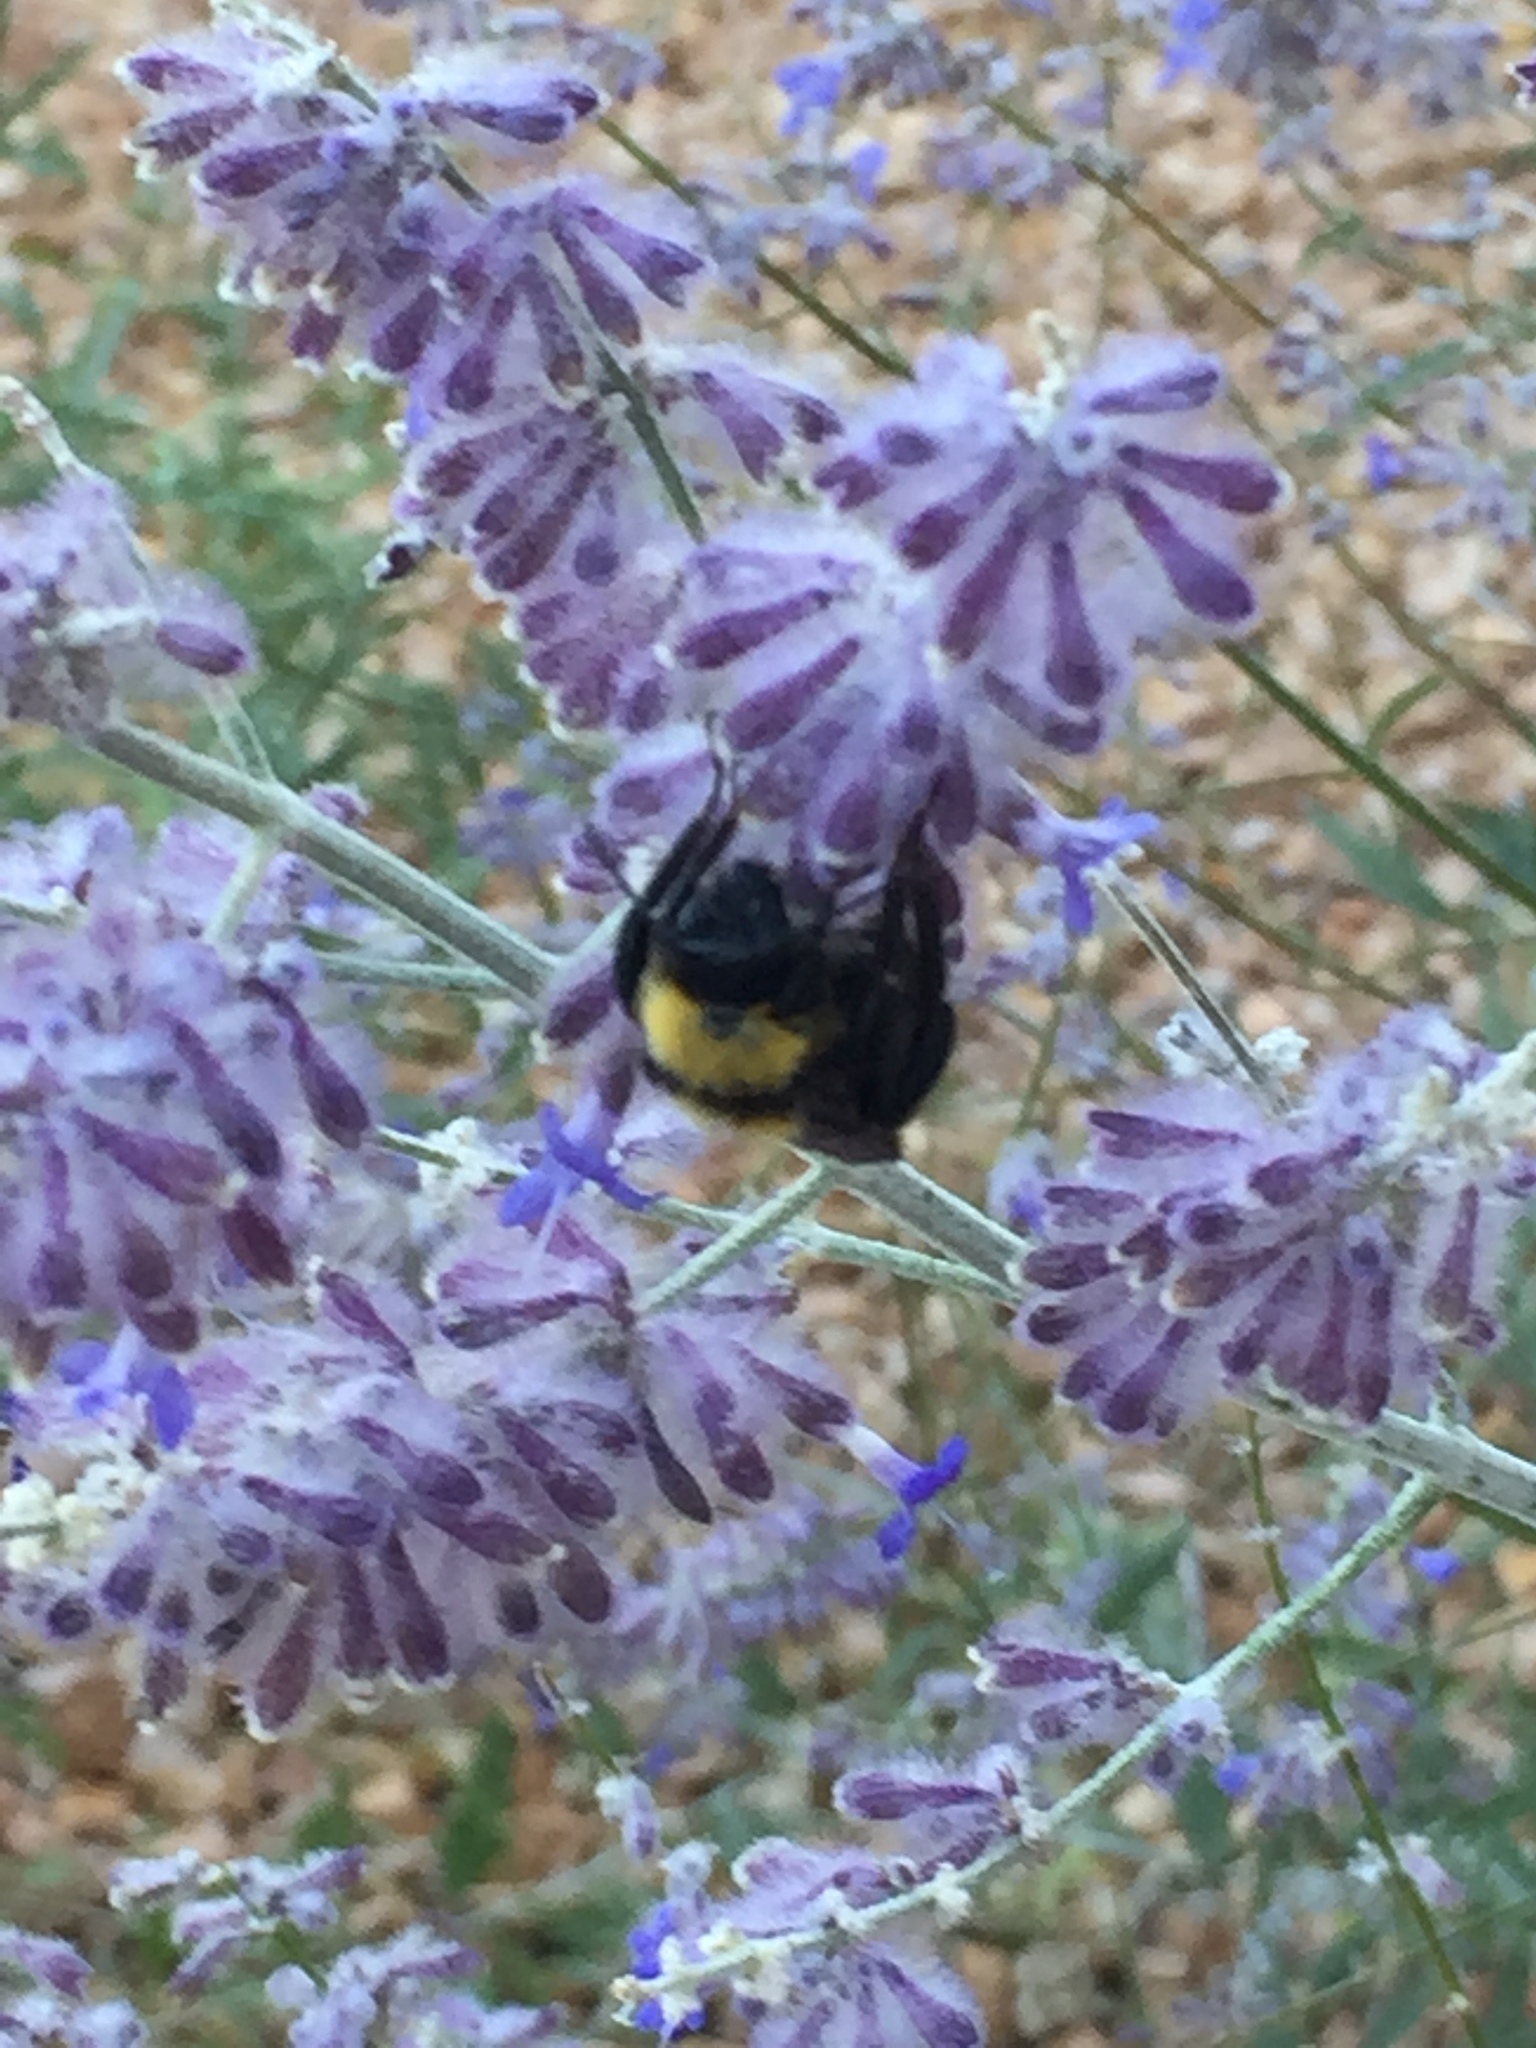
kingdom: Animalia
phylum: Arthropoda
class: Insecta
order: Hymenoptera
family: Apidae
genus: Bombus
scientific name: Bombus sonorus
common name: Sonoran bumble bee
